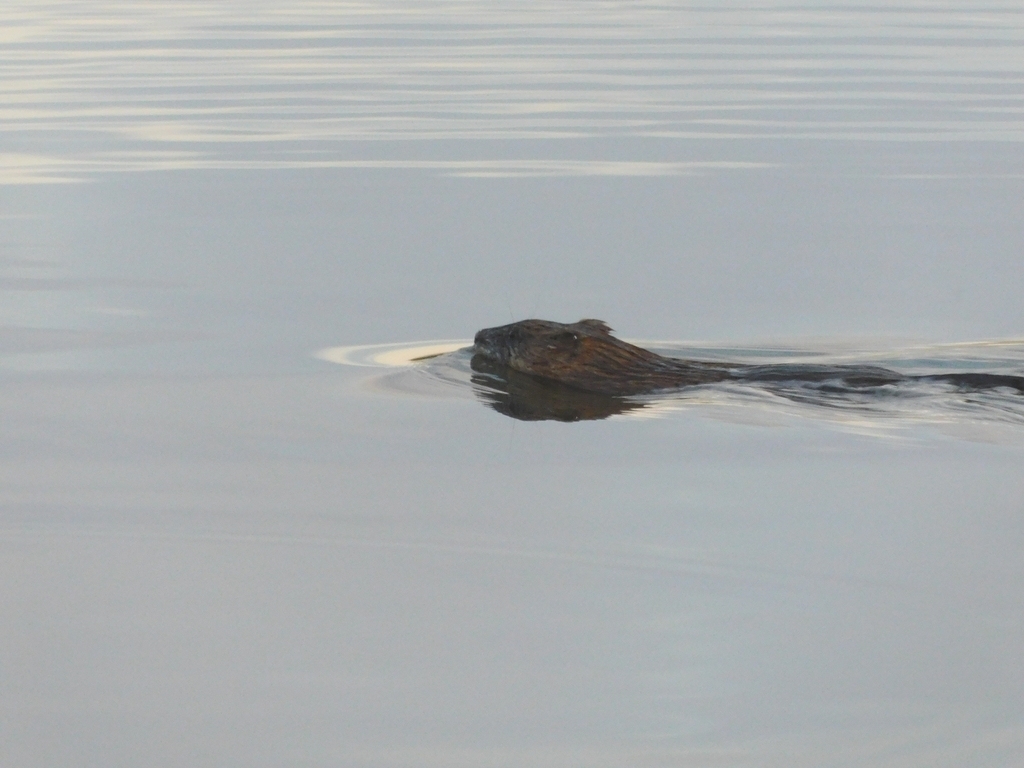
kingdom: Animalia
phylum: Chordata
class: Mammalia
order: Rodentia
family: Cricetidae
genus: Ondatra
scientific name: Ondatra zibethicus
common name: Muskrat
